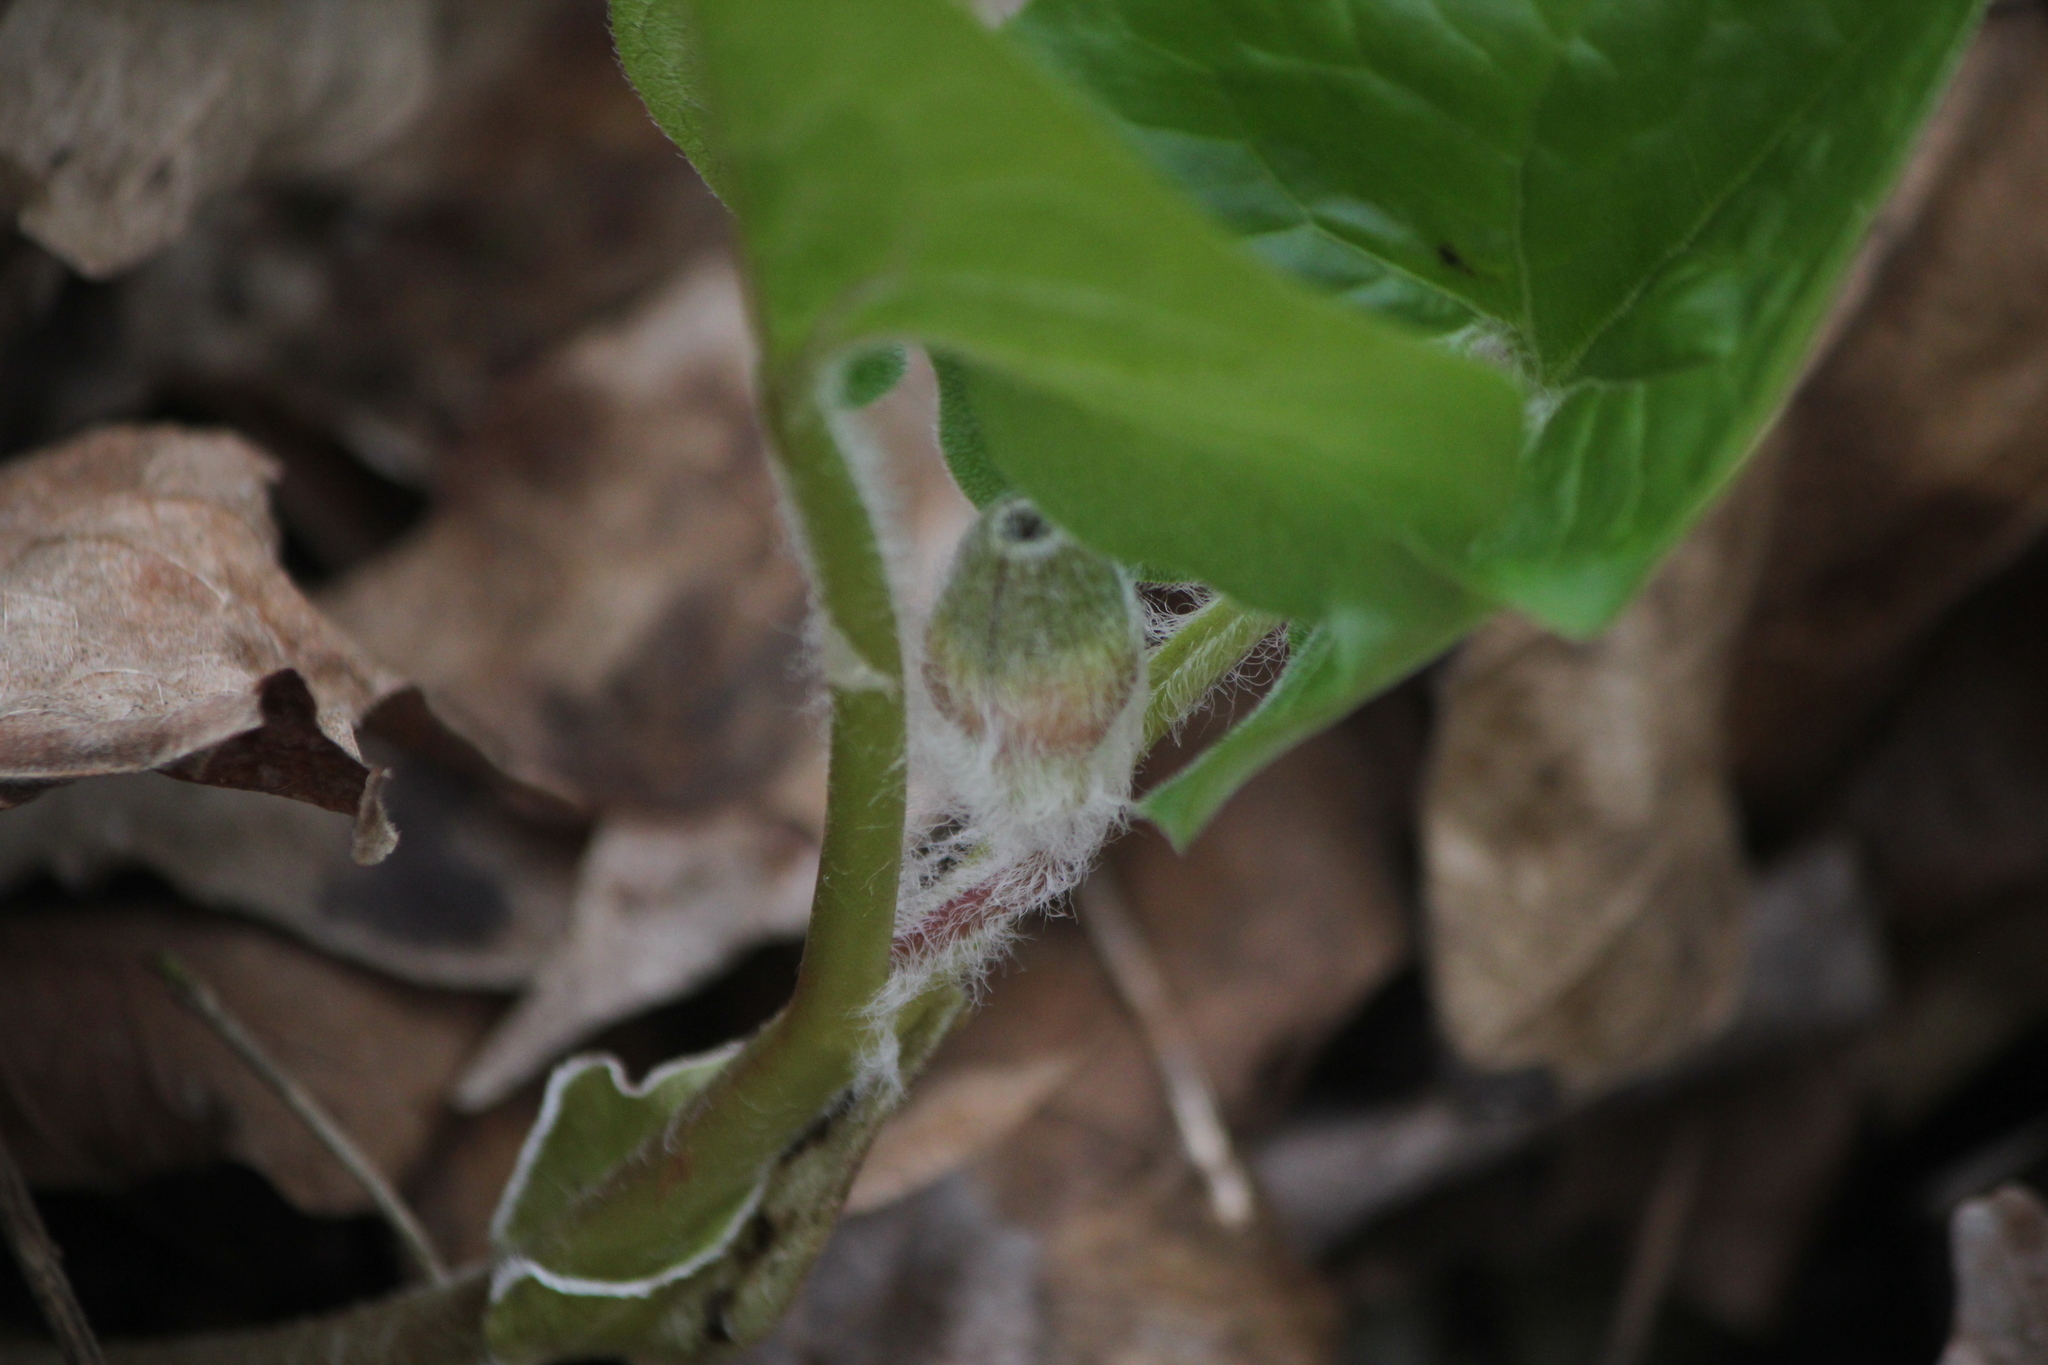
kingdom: Plantae
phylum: Tracheophyta
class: Magnoliopsida
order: Piperales
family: Aristolochiaceae
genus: Asarum
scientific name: Asarum canadense
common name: Wild ginger
